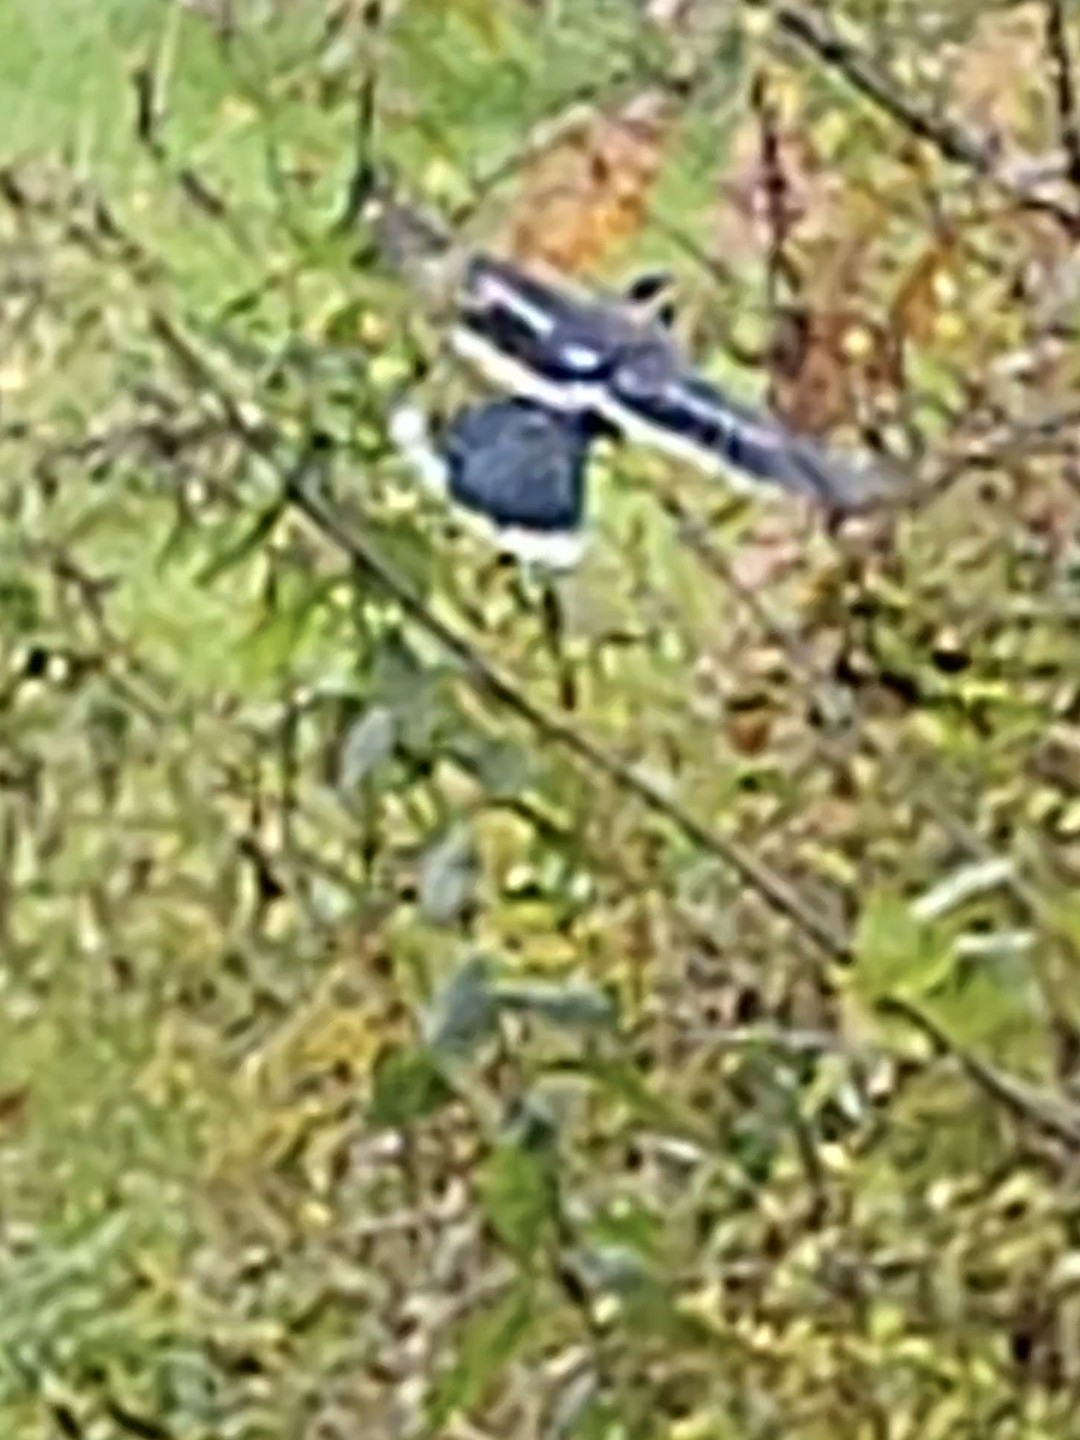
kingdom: Animalia
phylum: Chordata
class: Aves
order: Passeriformes
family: Corvidae
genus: Cyanocitta
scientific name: Cyanocitta cristata
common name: Blue jay
